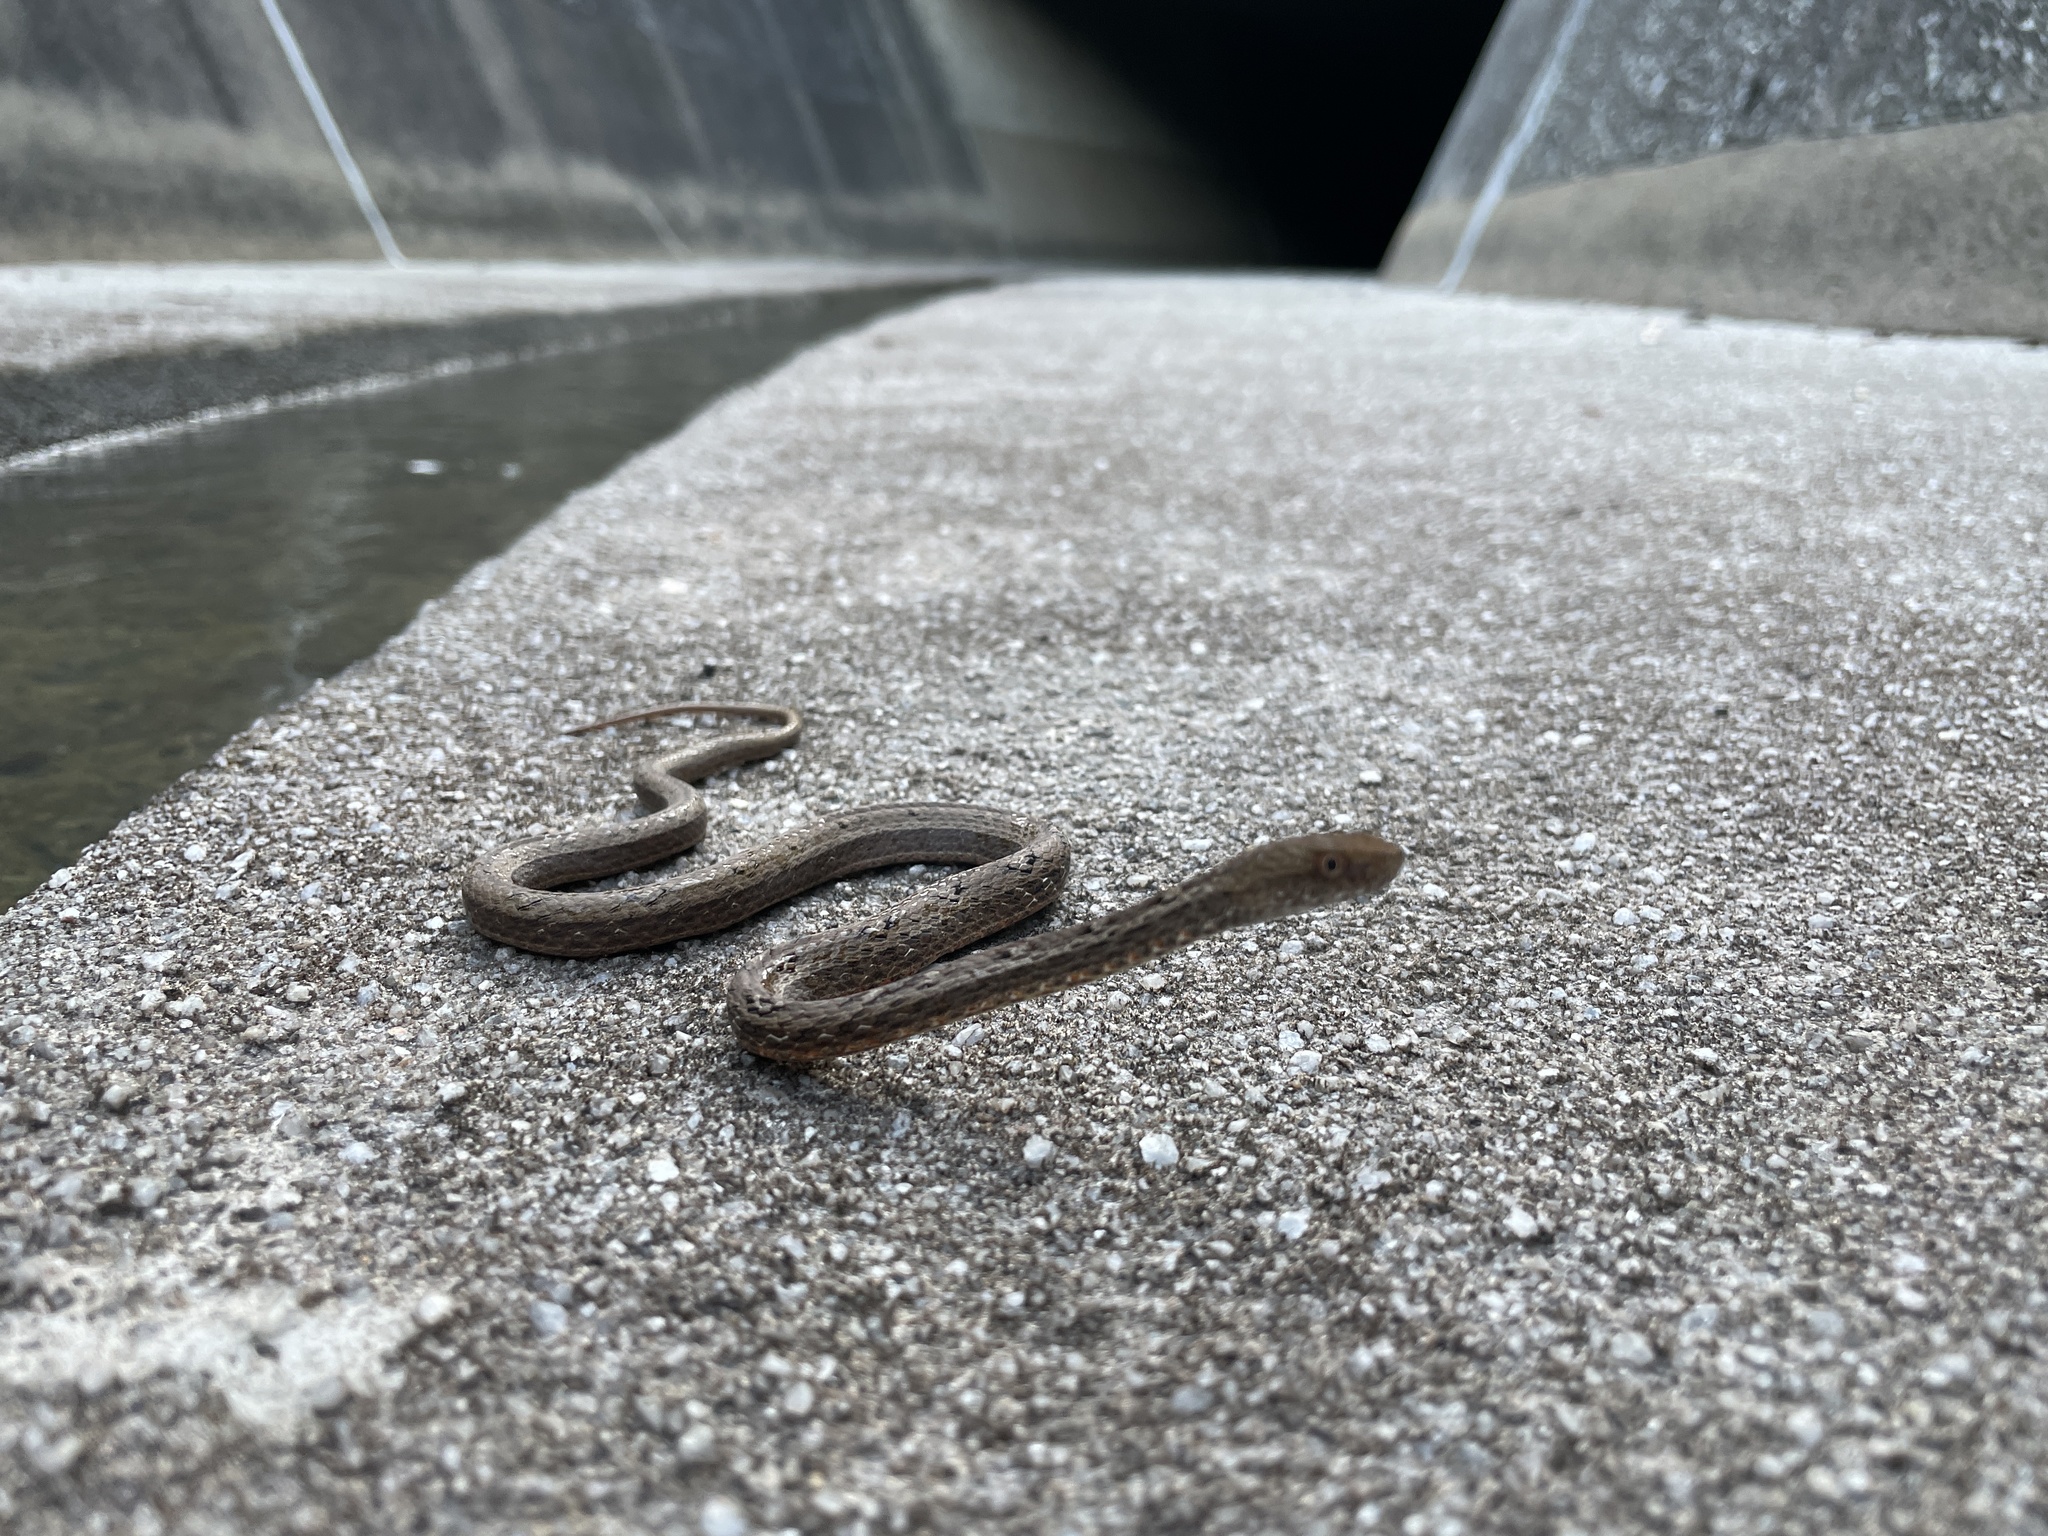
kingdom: Animalia
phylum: Chordata
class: Squamata
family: Pseudaspididae
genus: Psammodynastes
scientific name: Psammodynastes pulverulentus
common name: Common mock viper
